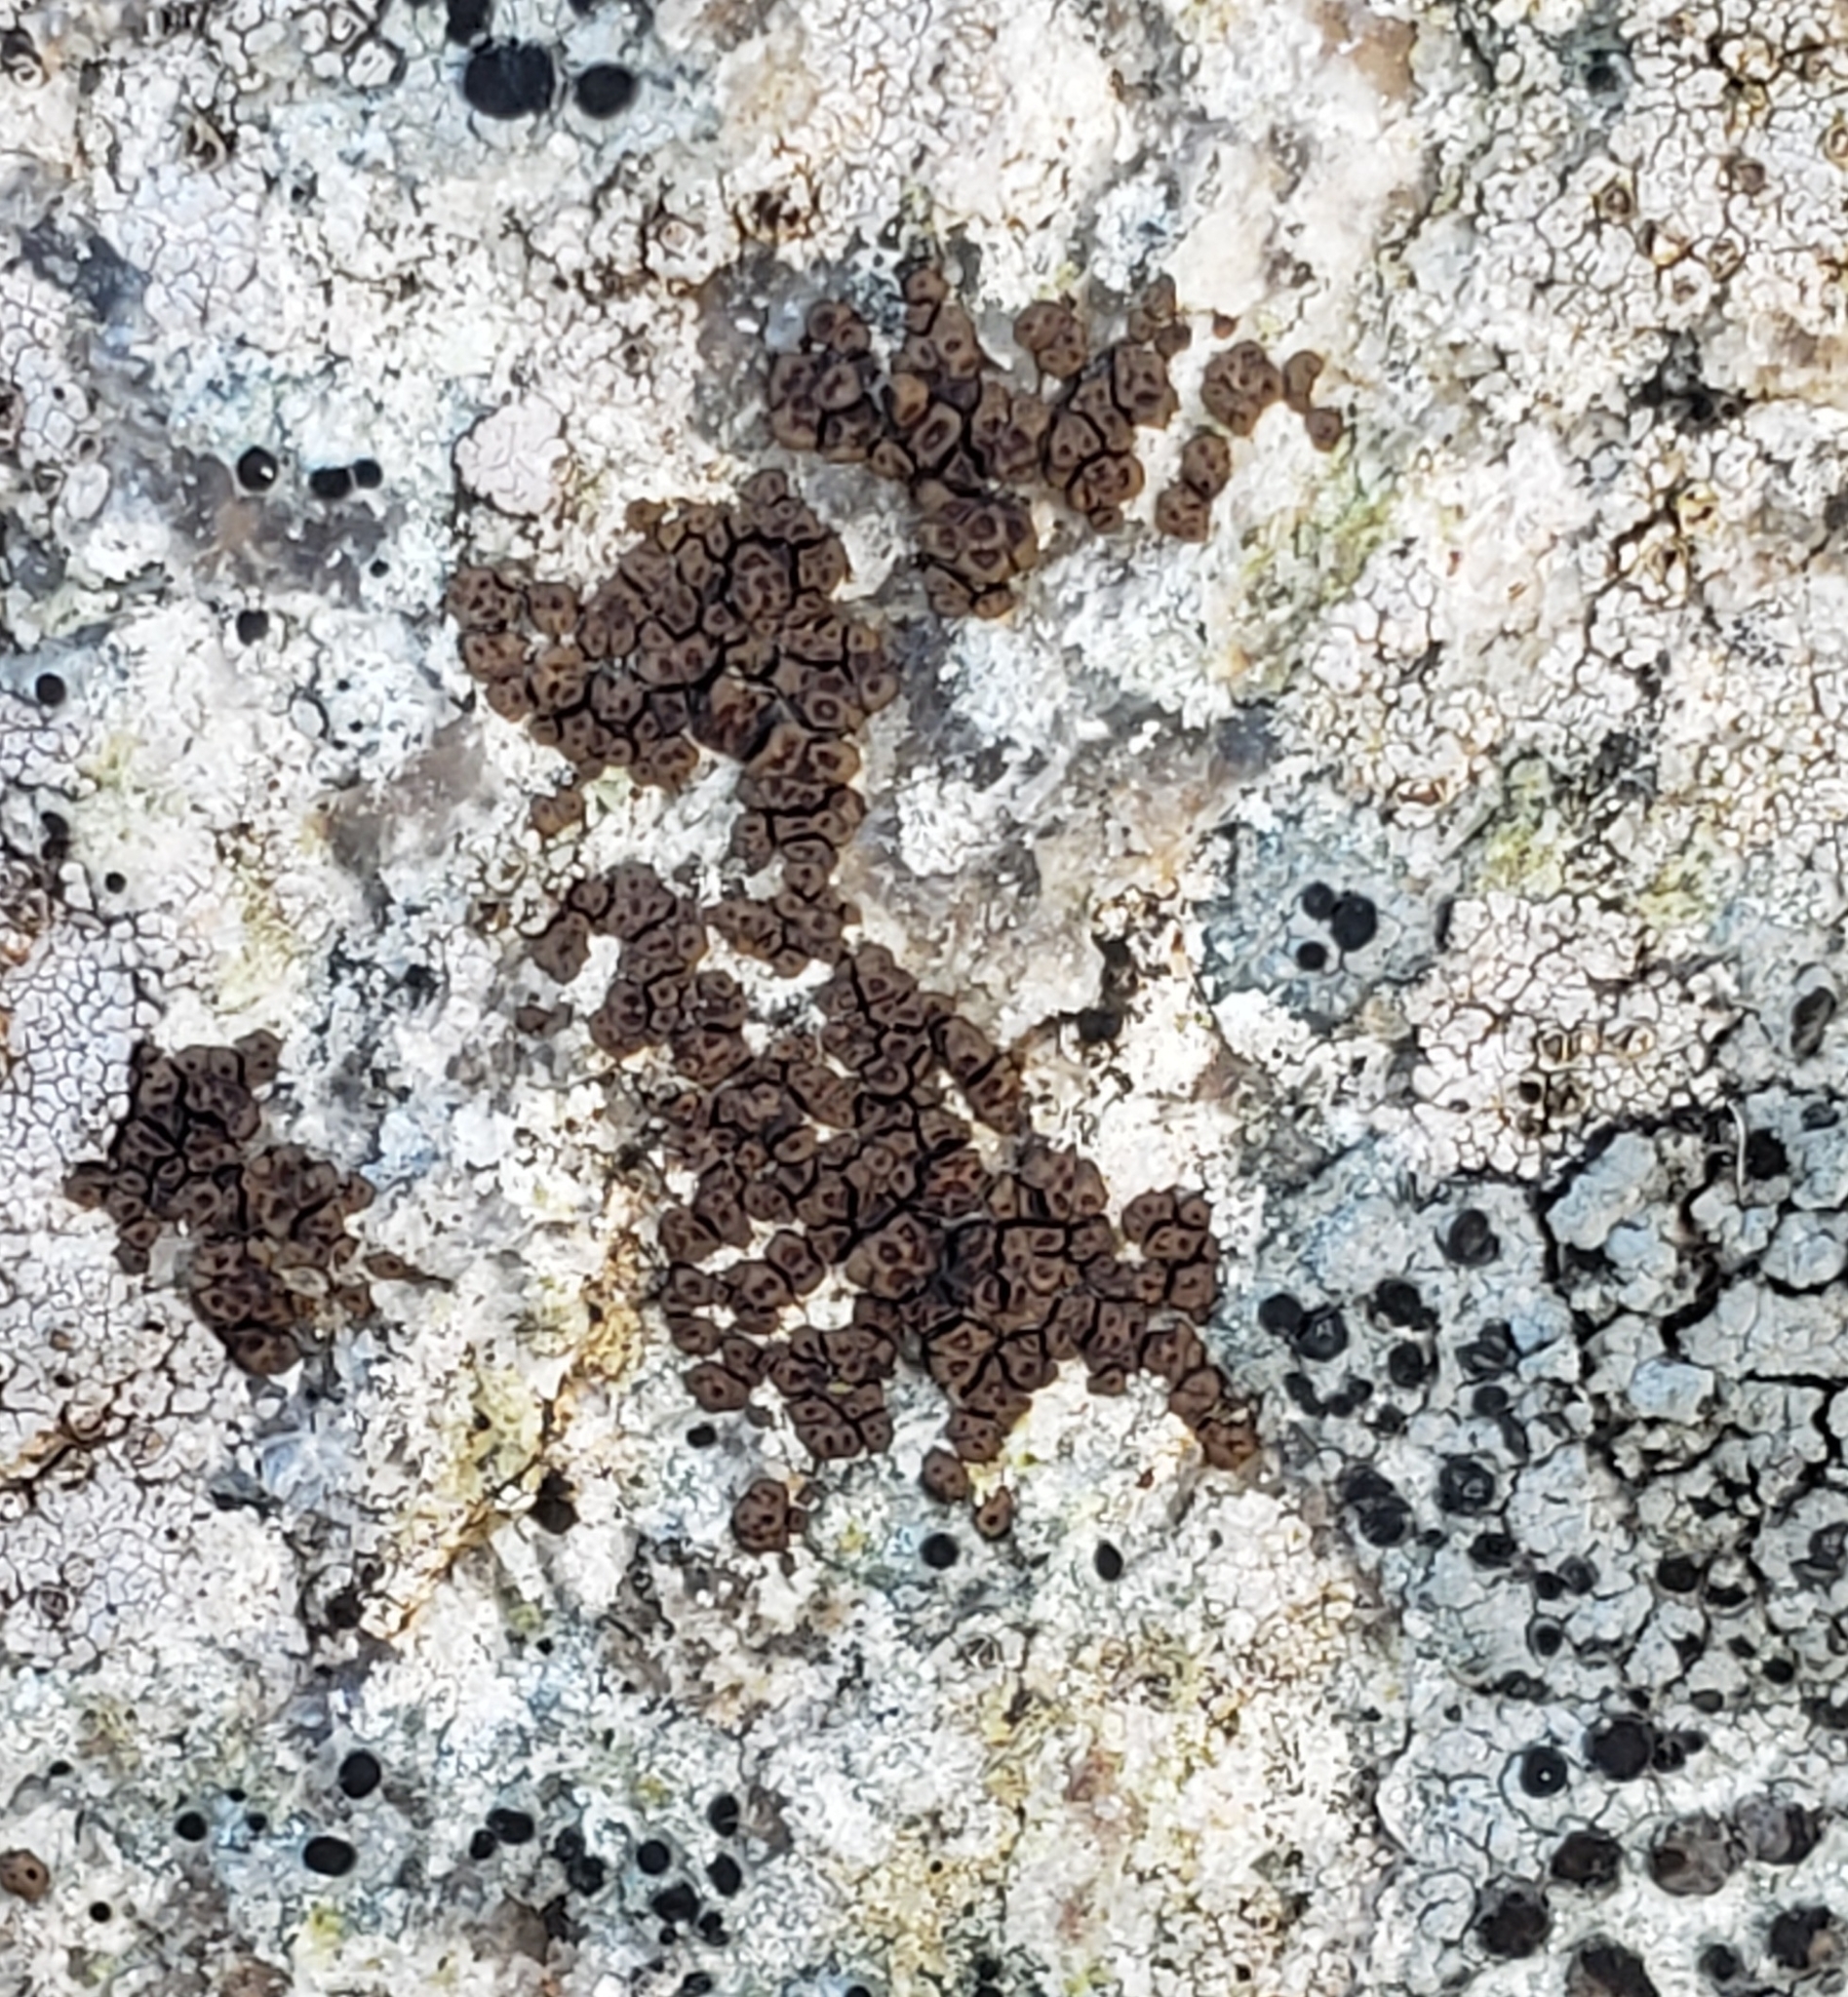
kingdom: Fungi
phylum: Ascomycota
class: Lecanoromycetes
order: Acarosporales
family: Acarosporaceae
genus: Acarospora
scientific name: Acarospora fuscata
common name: Brown cobblestone lichen
